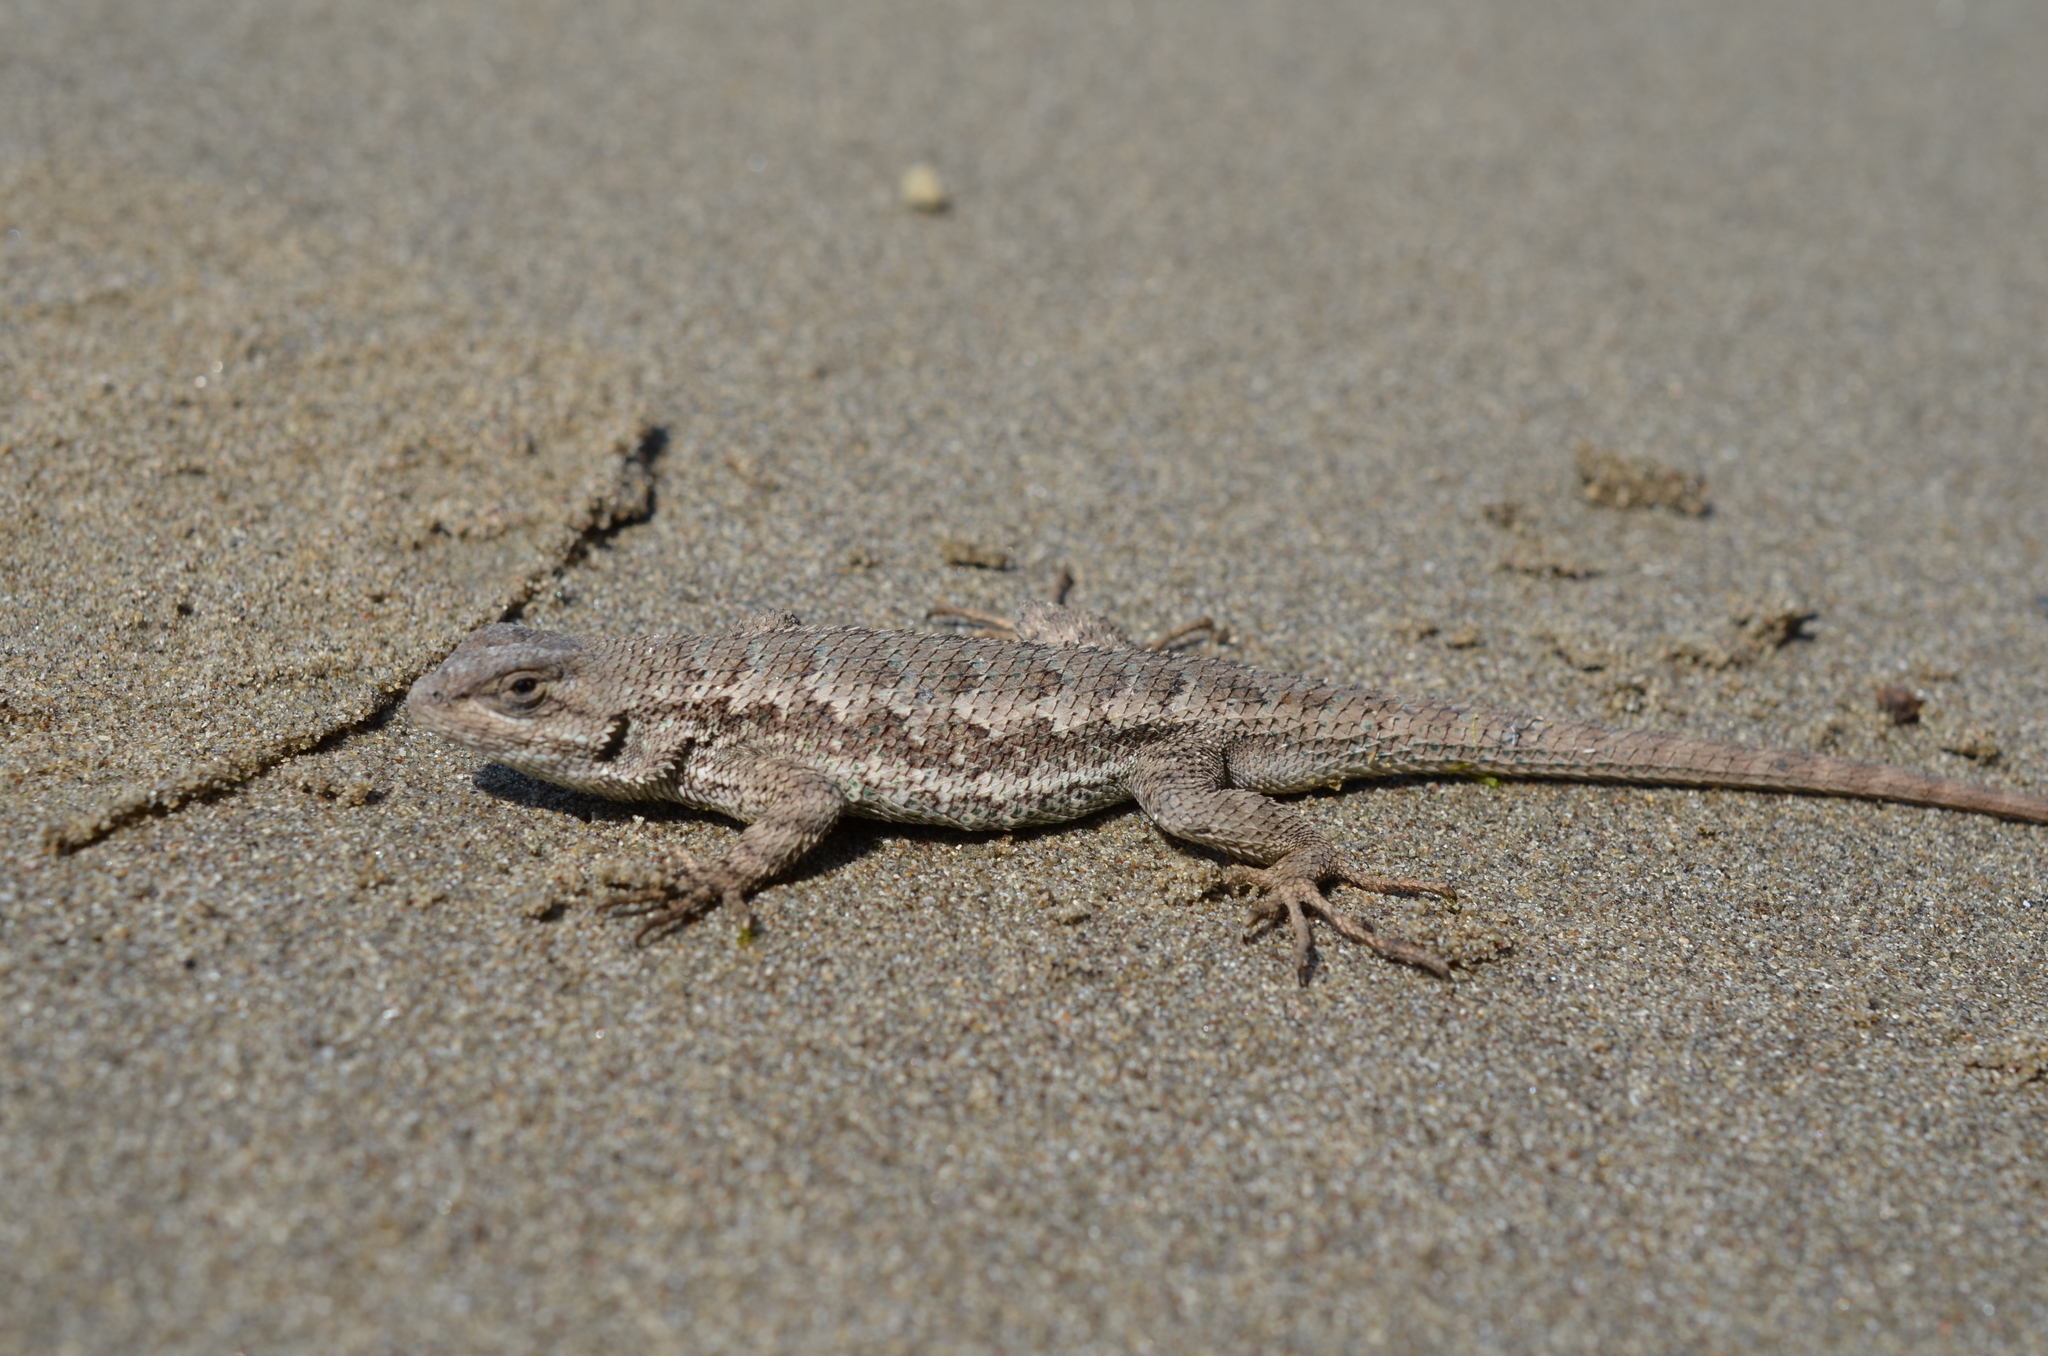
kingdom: Animalia
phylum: Chordata
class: Squamata
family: Phrynosomatidae
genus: Sceloporus
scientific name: Sceloporus occidentalis
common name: Western fence lizard
